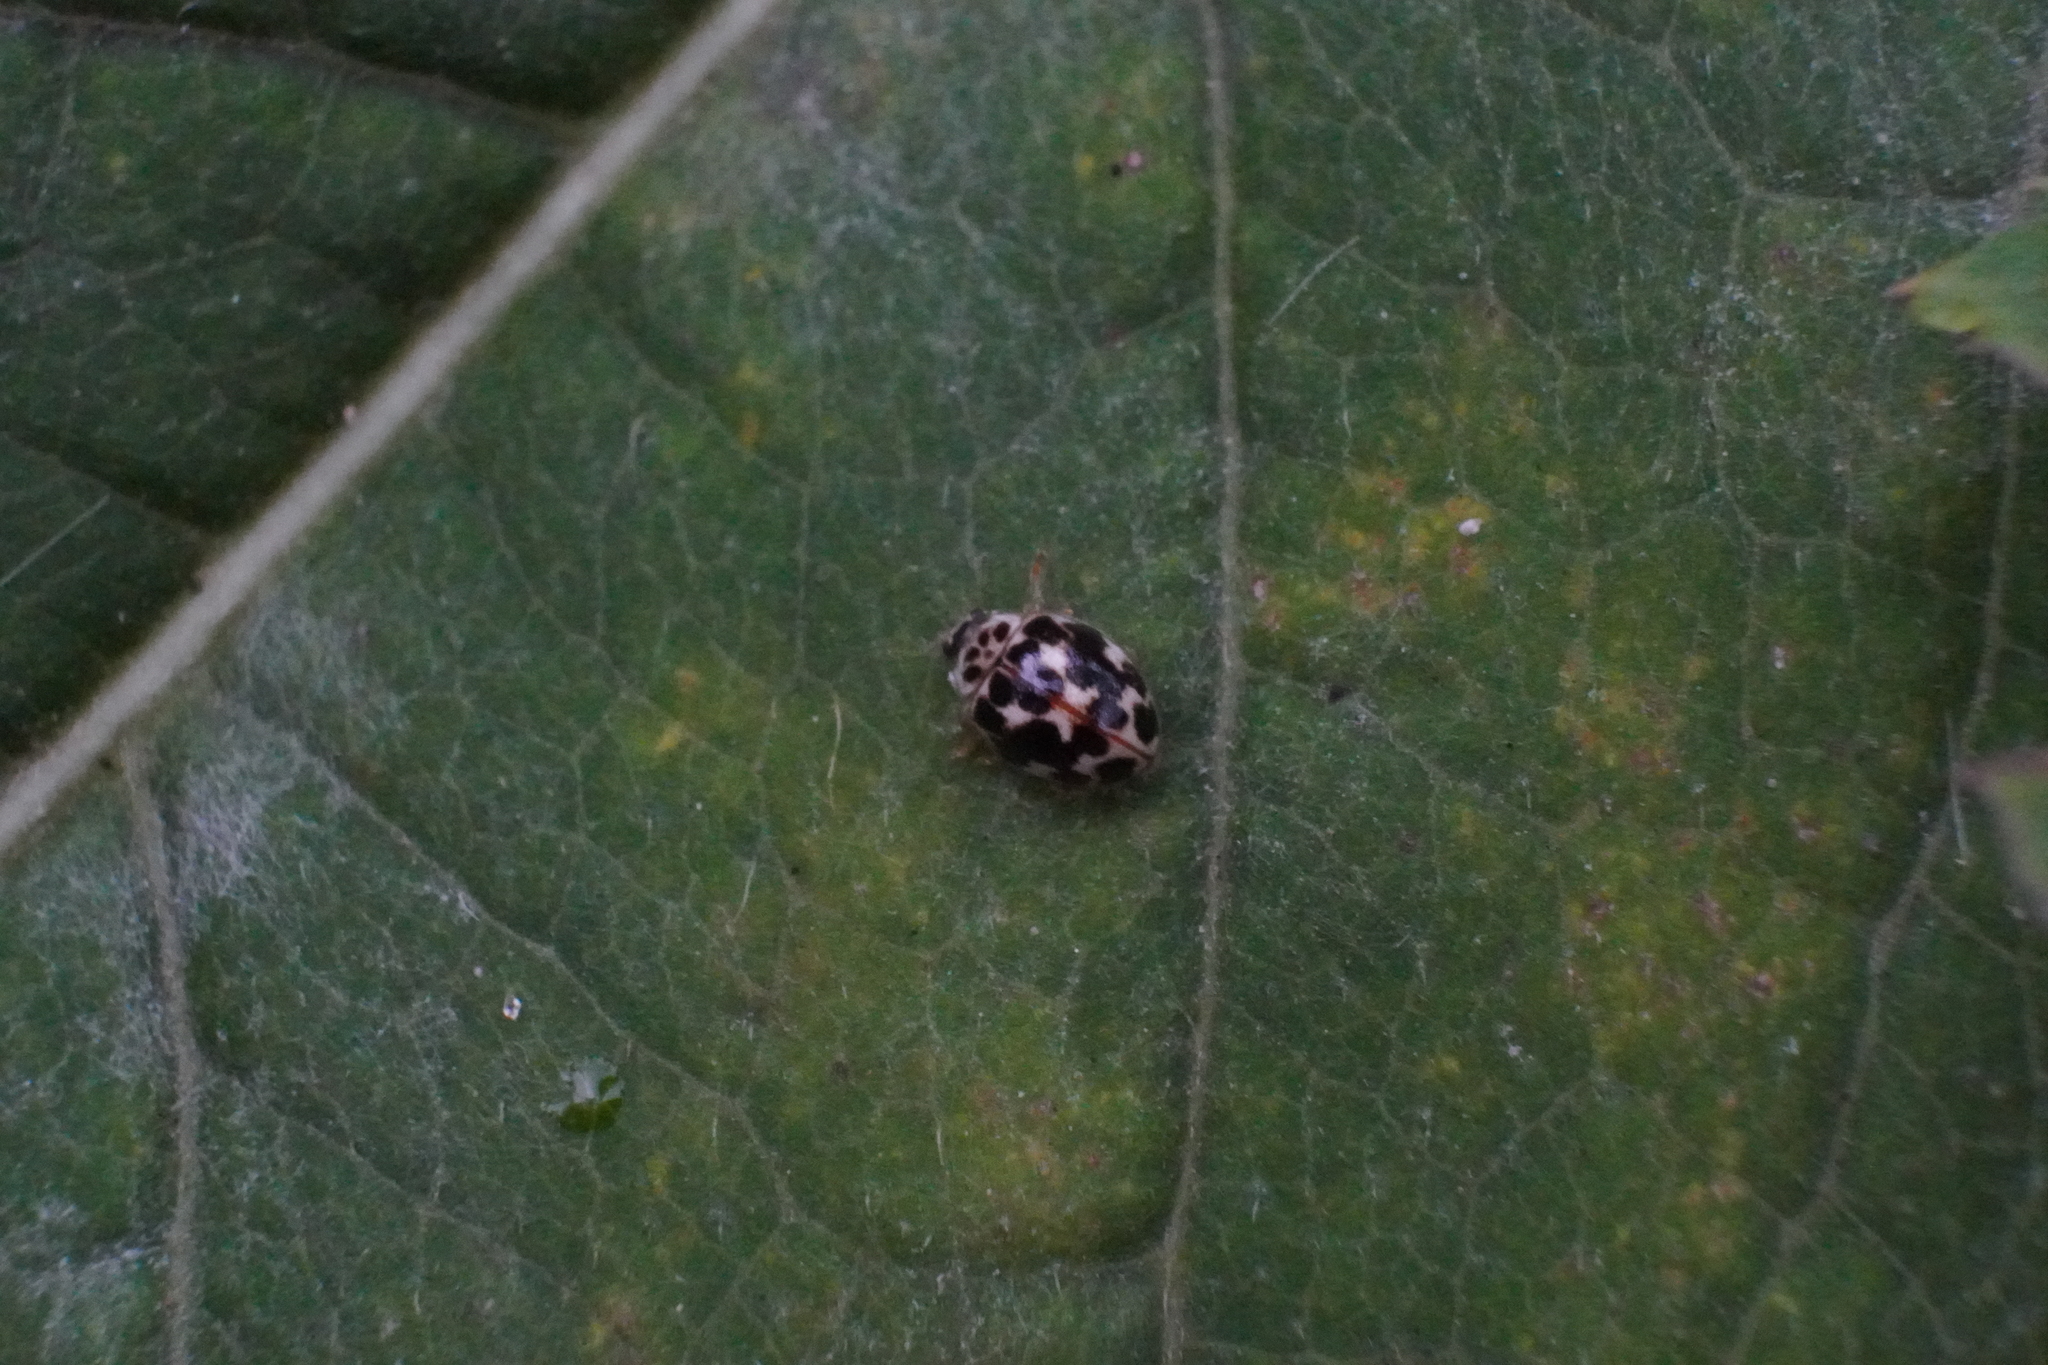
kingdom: Animalia
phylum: Arthropoda
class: Insecta
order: Coleoptera
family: Coccinellidae
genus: Psyllobora
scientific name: Psyllobora vigintimaculata
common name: Ladybird beetle
